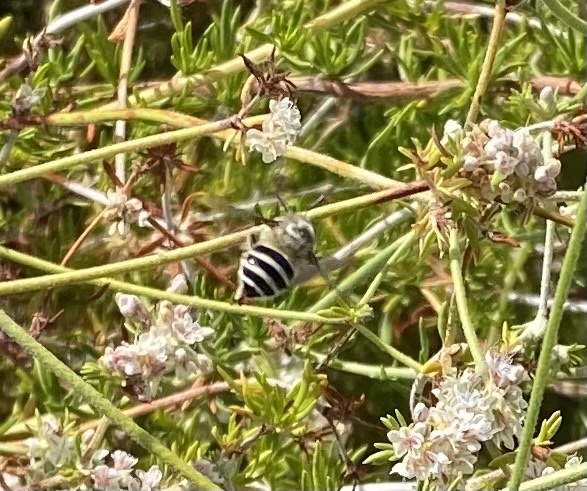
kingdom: Animalia
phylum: Arthropoda
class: Insecta
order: Hymenoptera
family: Apidae
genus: Anthophora
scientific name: Anthophora urbana
